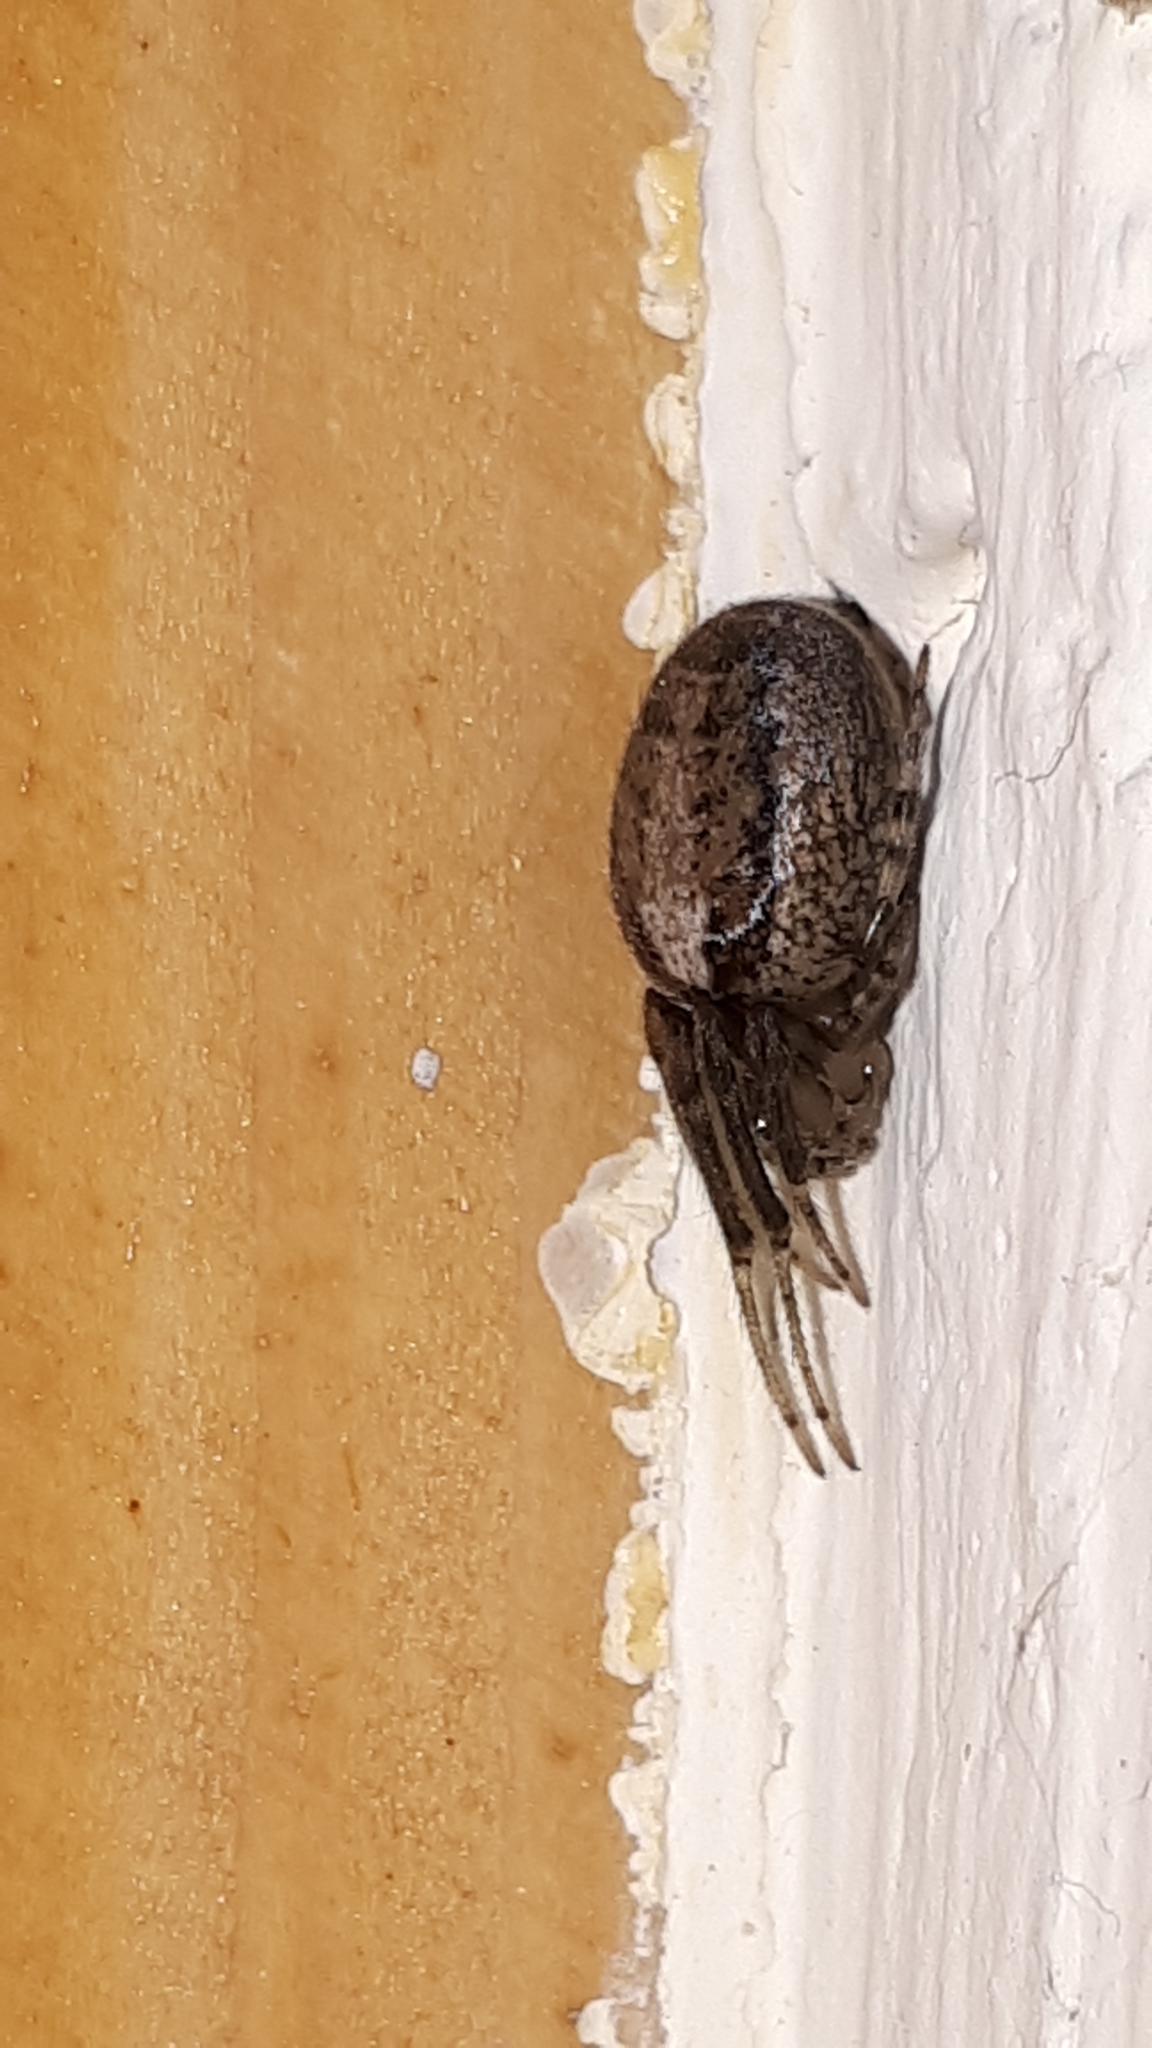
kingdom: Animalia
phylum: Arthropoda
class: Arachnida
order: Araneae
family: Araneidae
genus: Zygiella
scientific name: Zygiella x-notata
